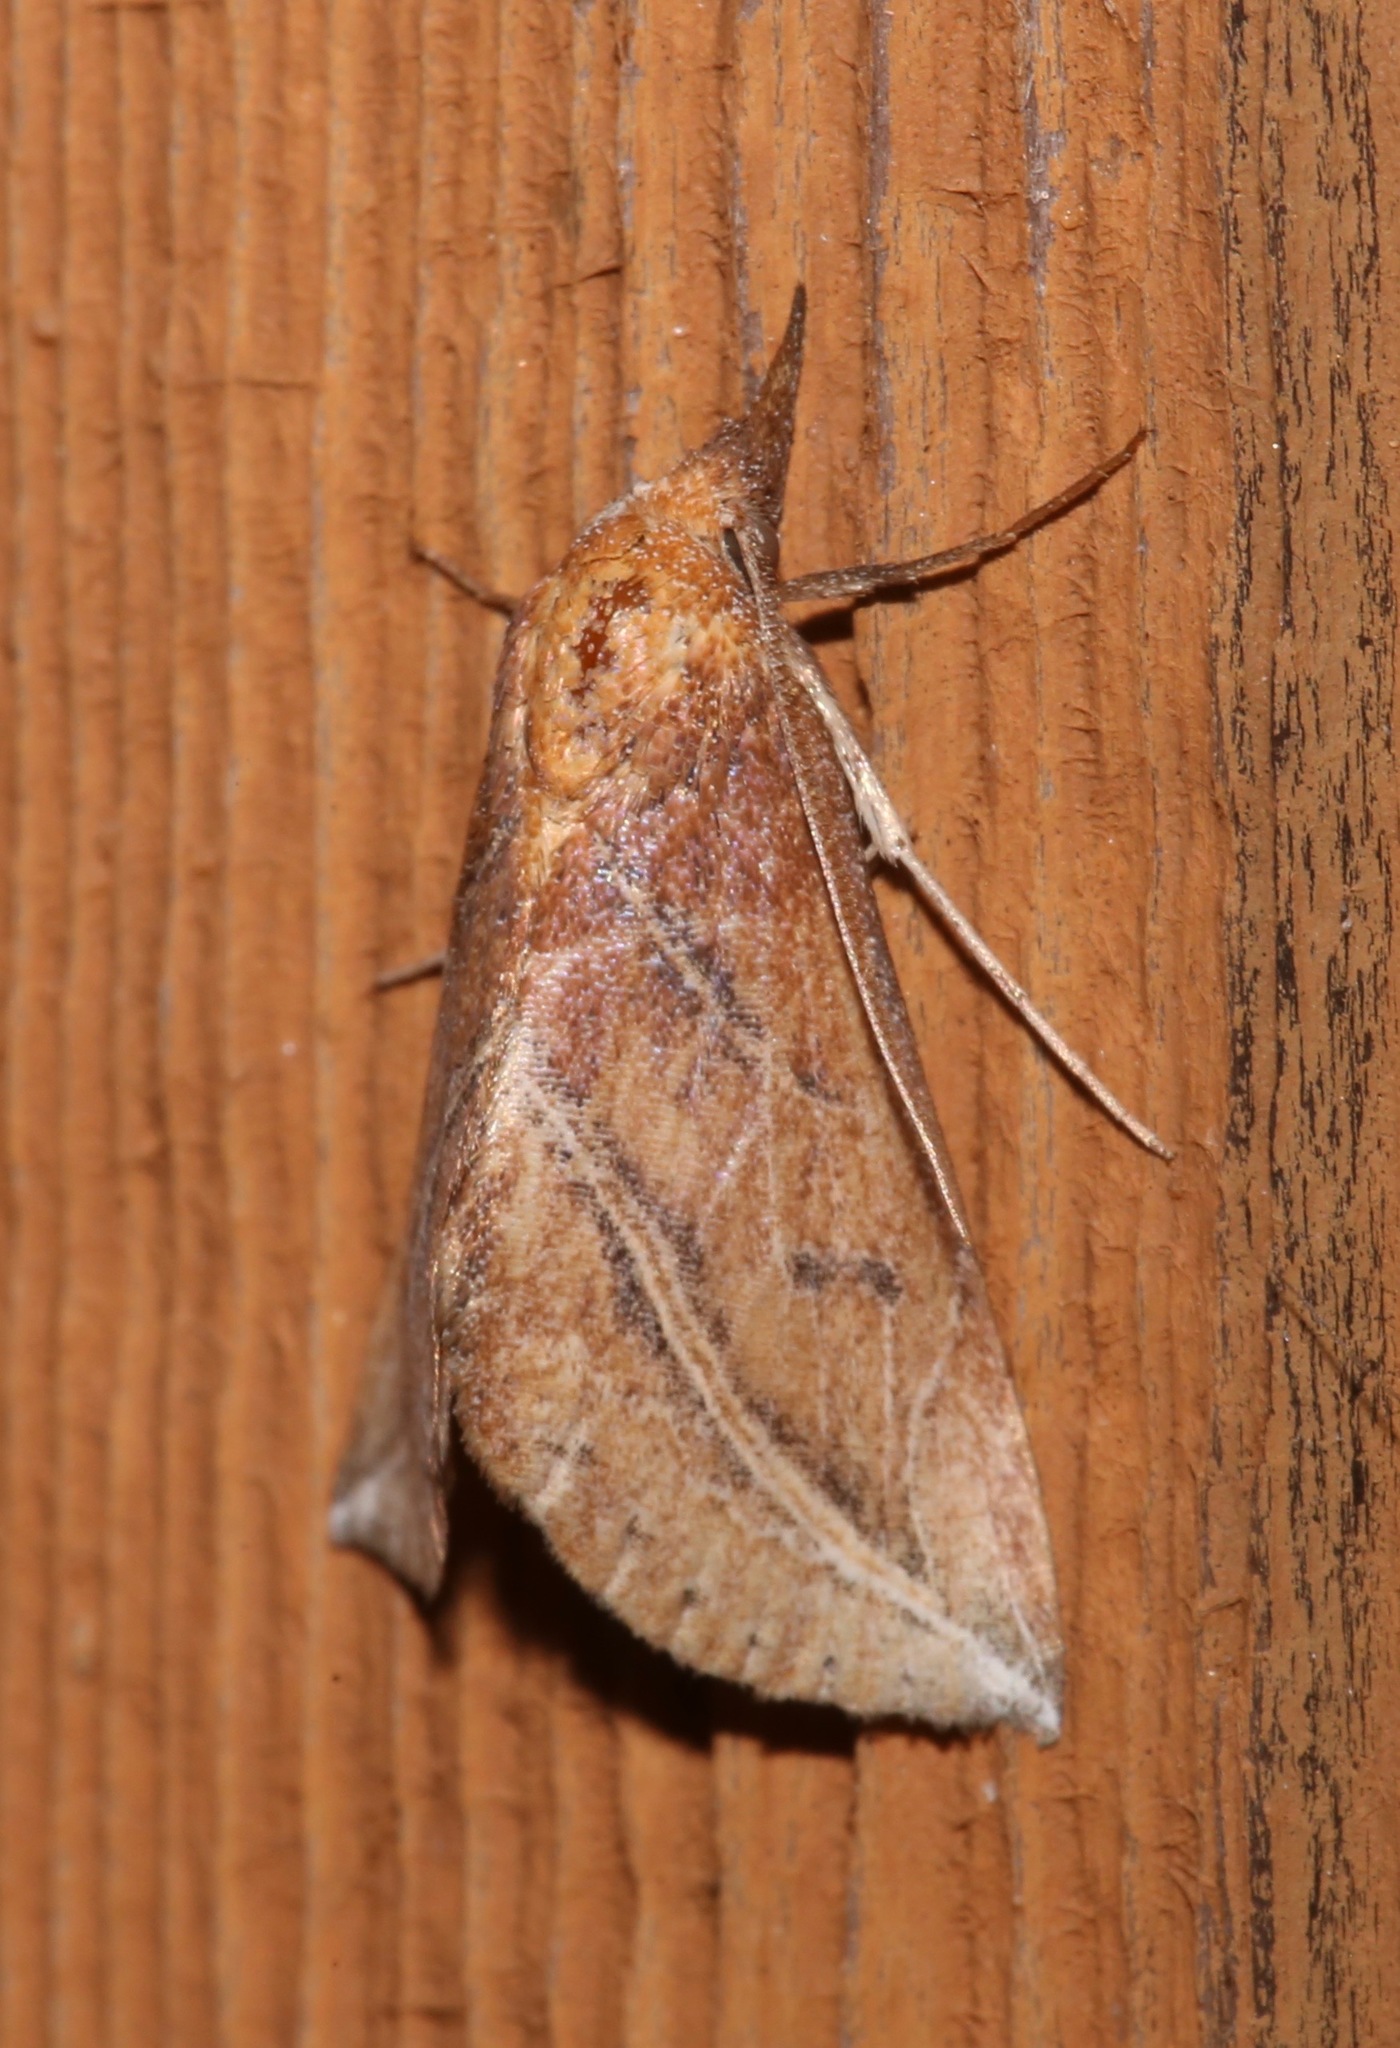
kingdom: Animalia
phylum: Arthropoda
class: Insecta
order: Lepidoptera
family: Erebidae
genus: Phyprosopus
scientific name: Phyprosopus callitrichoides
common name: Curved-lined owlet
